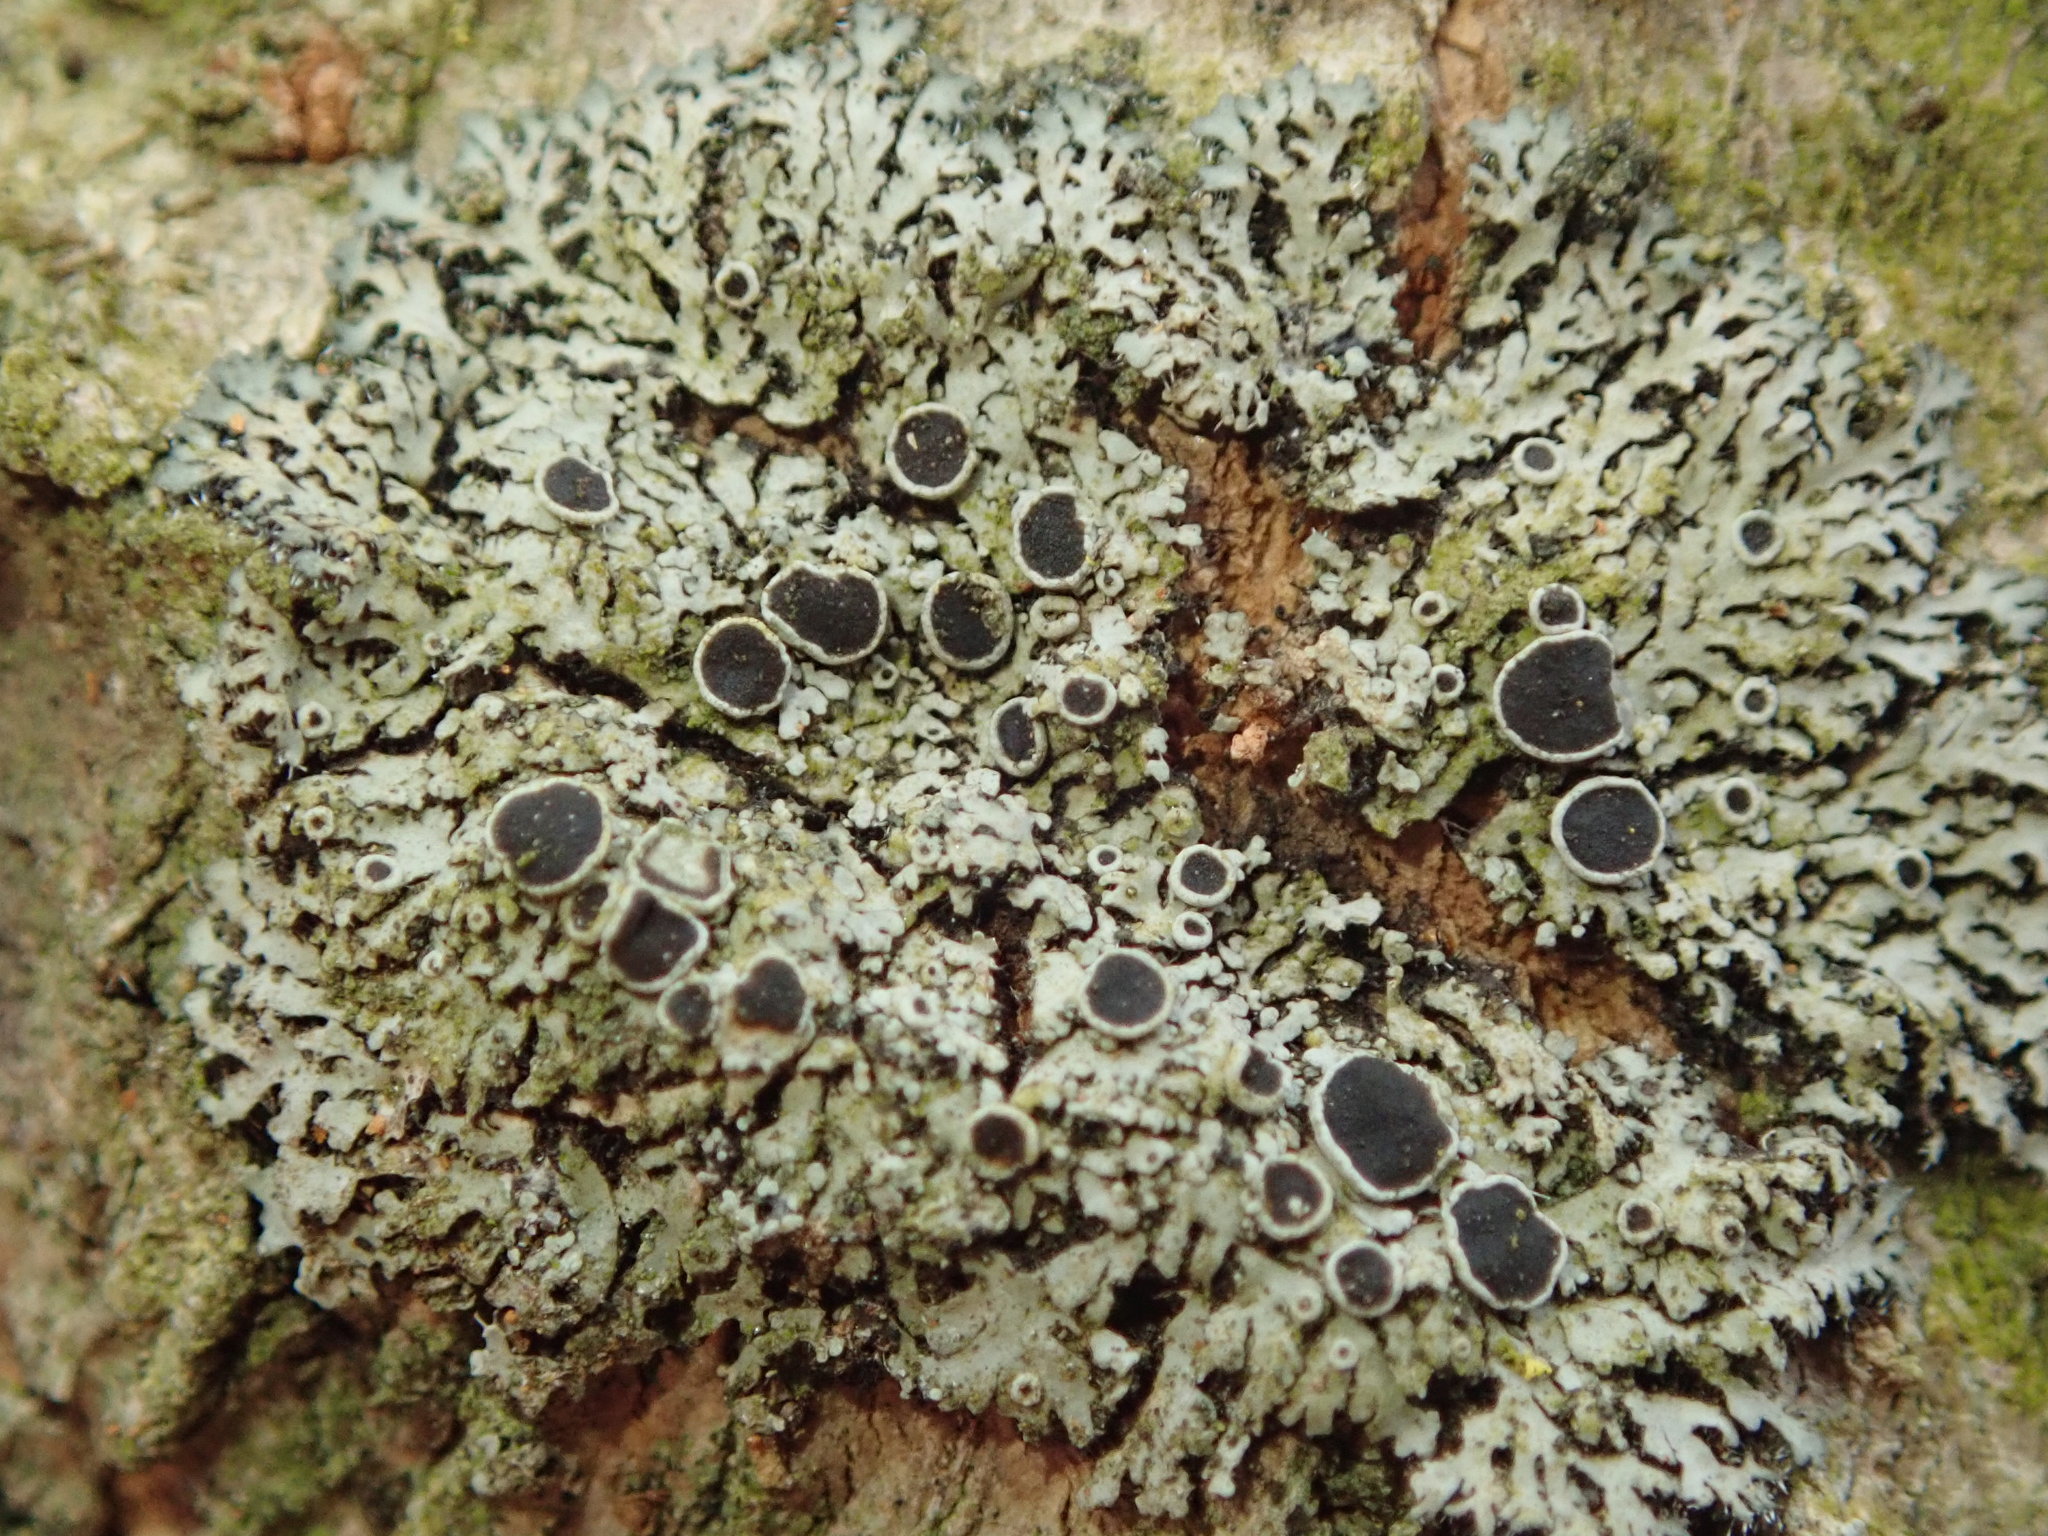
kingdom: Fungi
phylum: Ascomycota
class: Lecanoromycetes
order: Caliciales
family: Physciaceae
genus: Phaeophyscia
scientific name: Phaeophyscia hirtella
